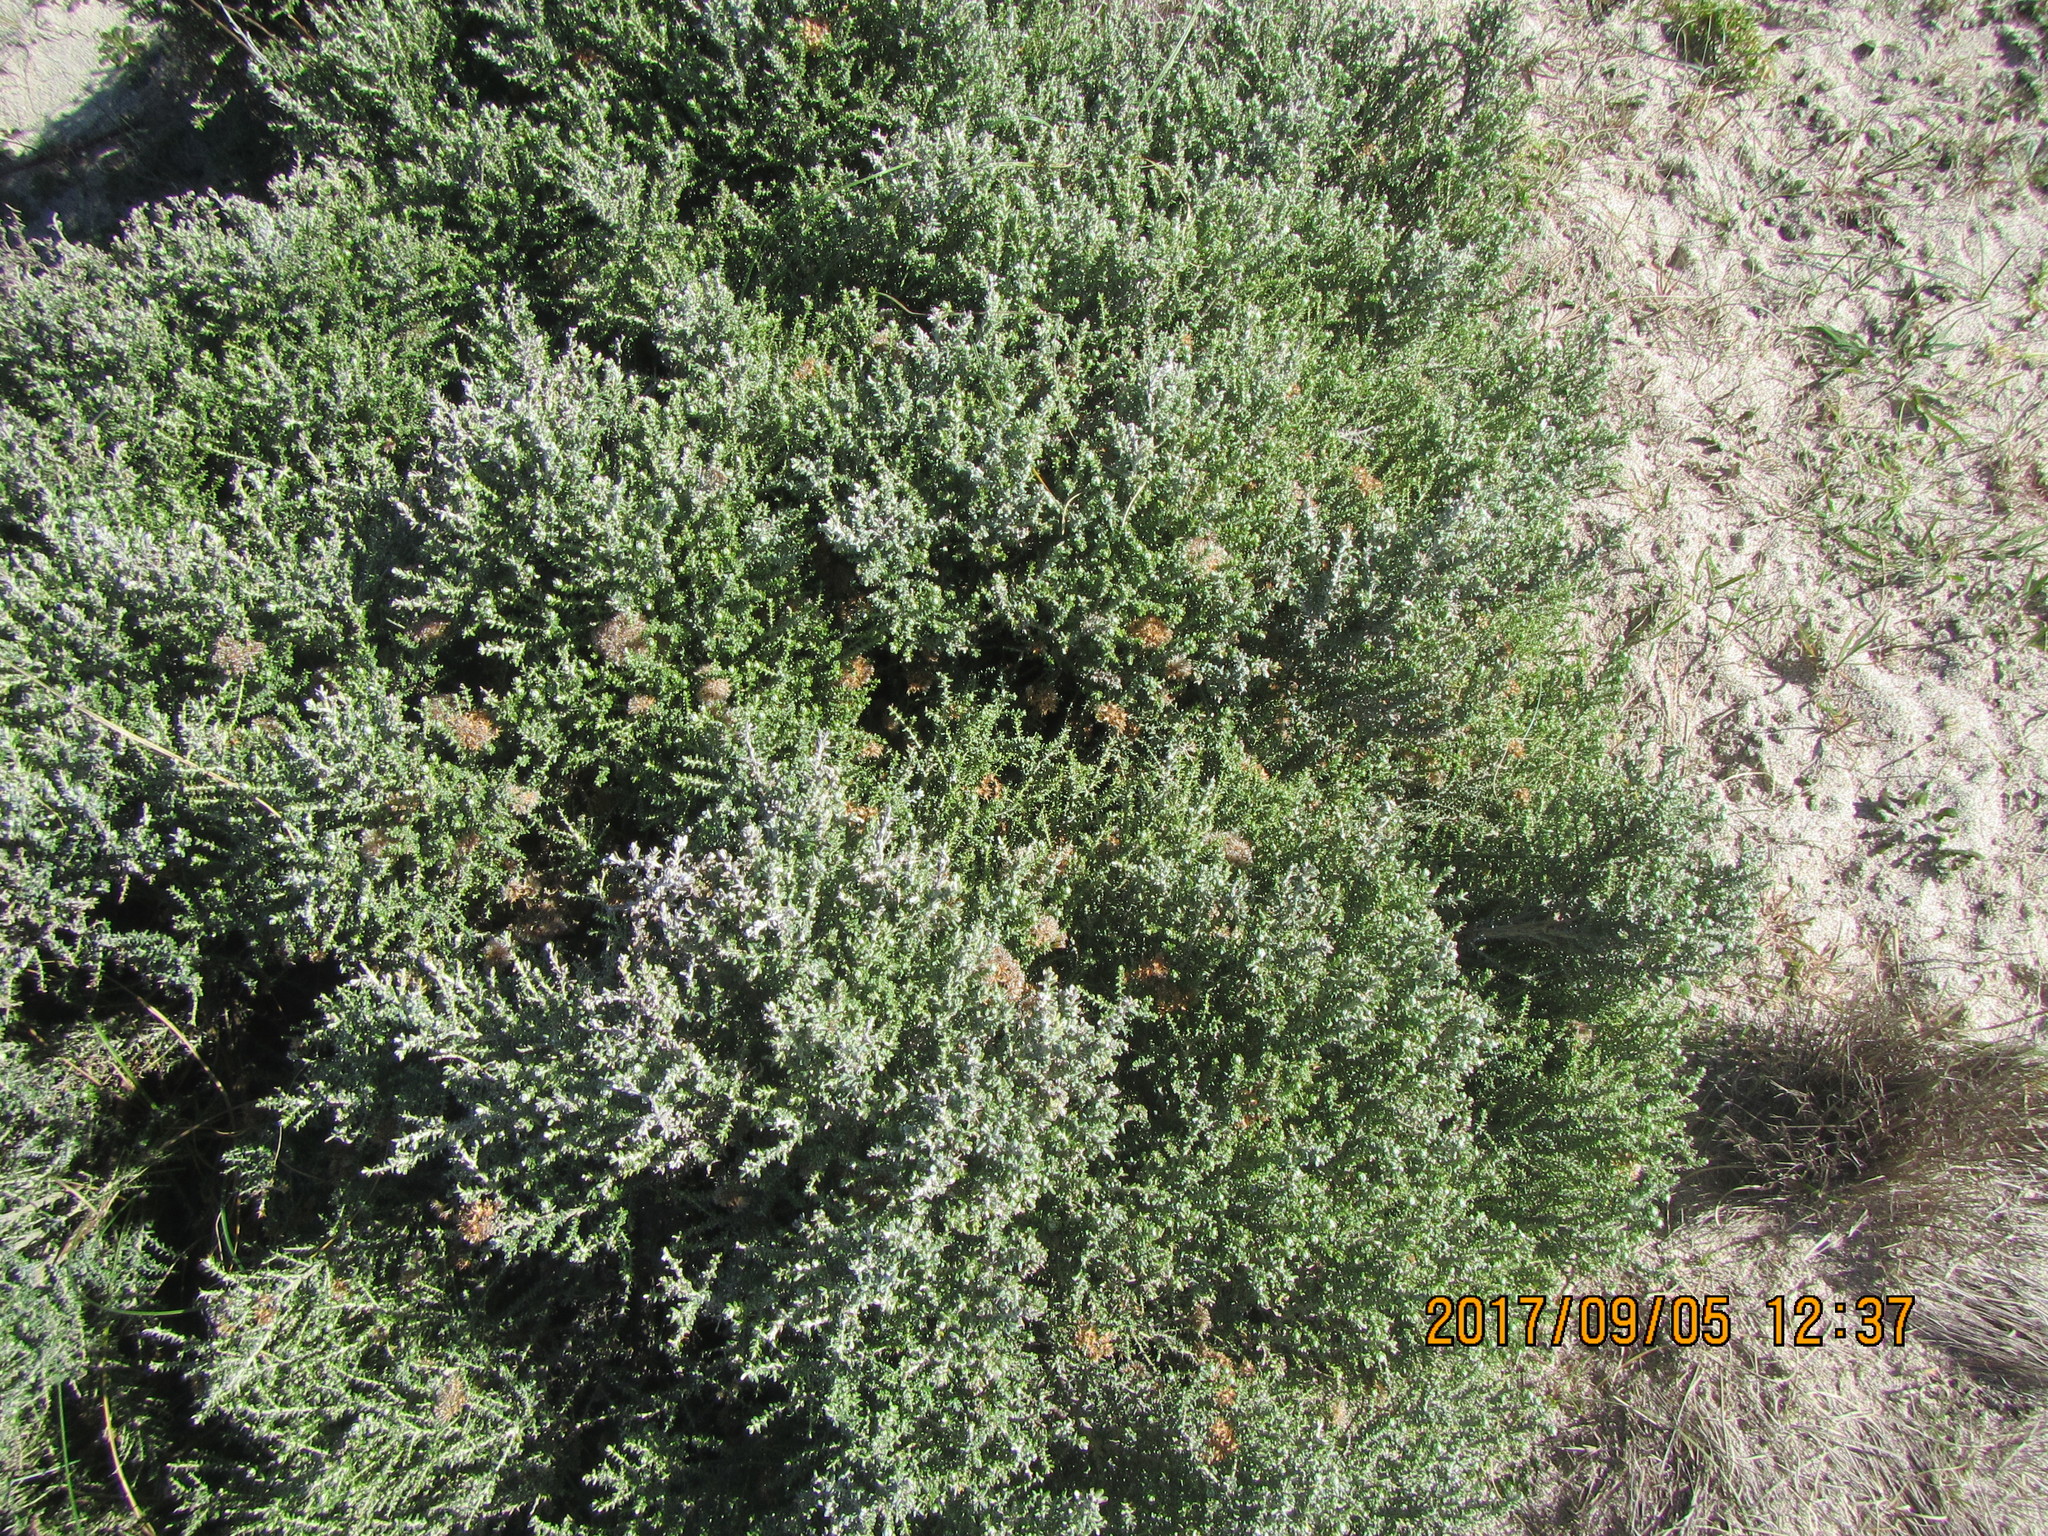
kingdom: Plantae
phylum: Tracheophyta
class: Magnoliopsida
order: Asterales
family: Asteraceae
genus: Ozothamnus
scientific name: Ozothamnus leptophyllus
